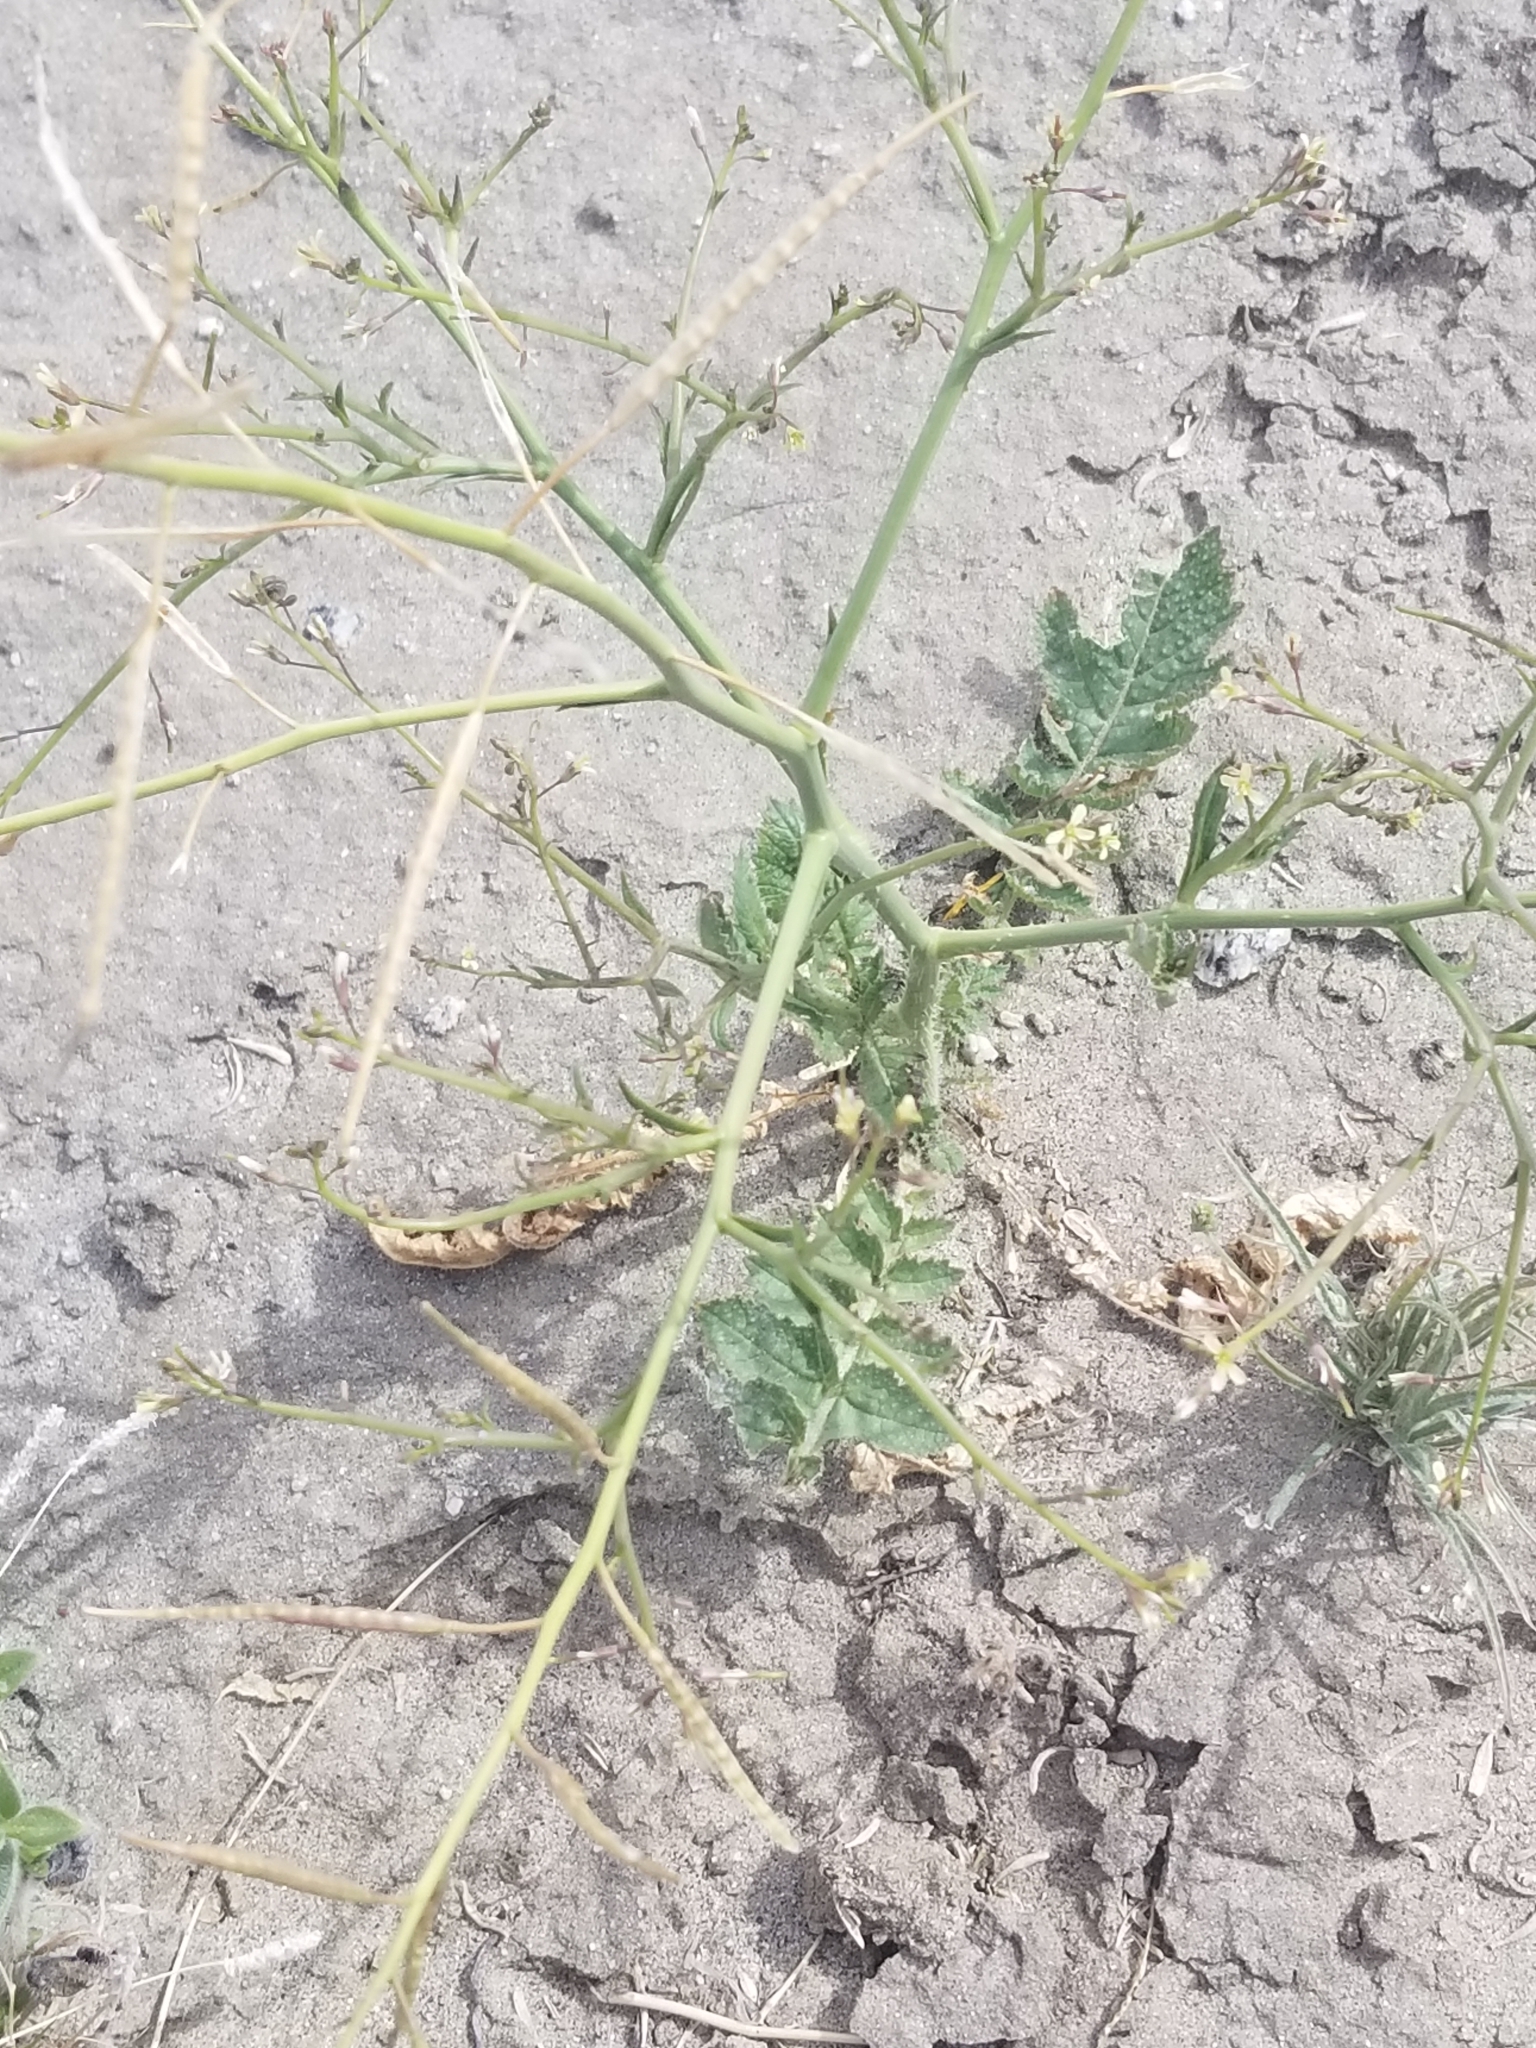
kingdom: Plantae
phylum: Tracheophyta
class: Magnoliopsida
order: Brassicales
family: Brassicaceae
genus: Brassica
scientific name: Brassica tournefortii
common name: Pale cabbage
